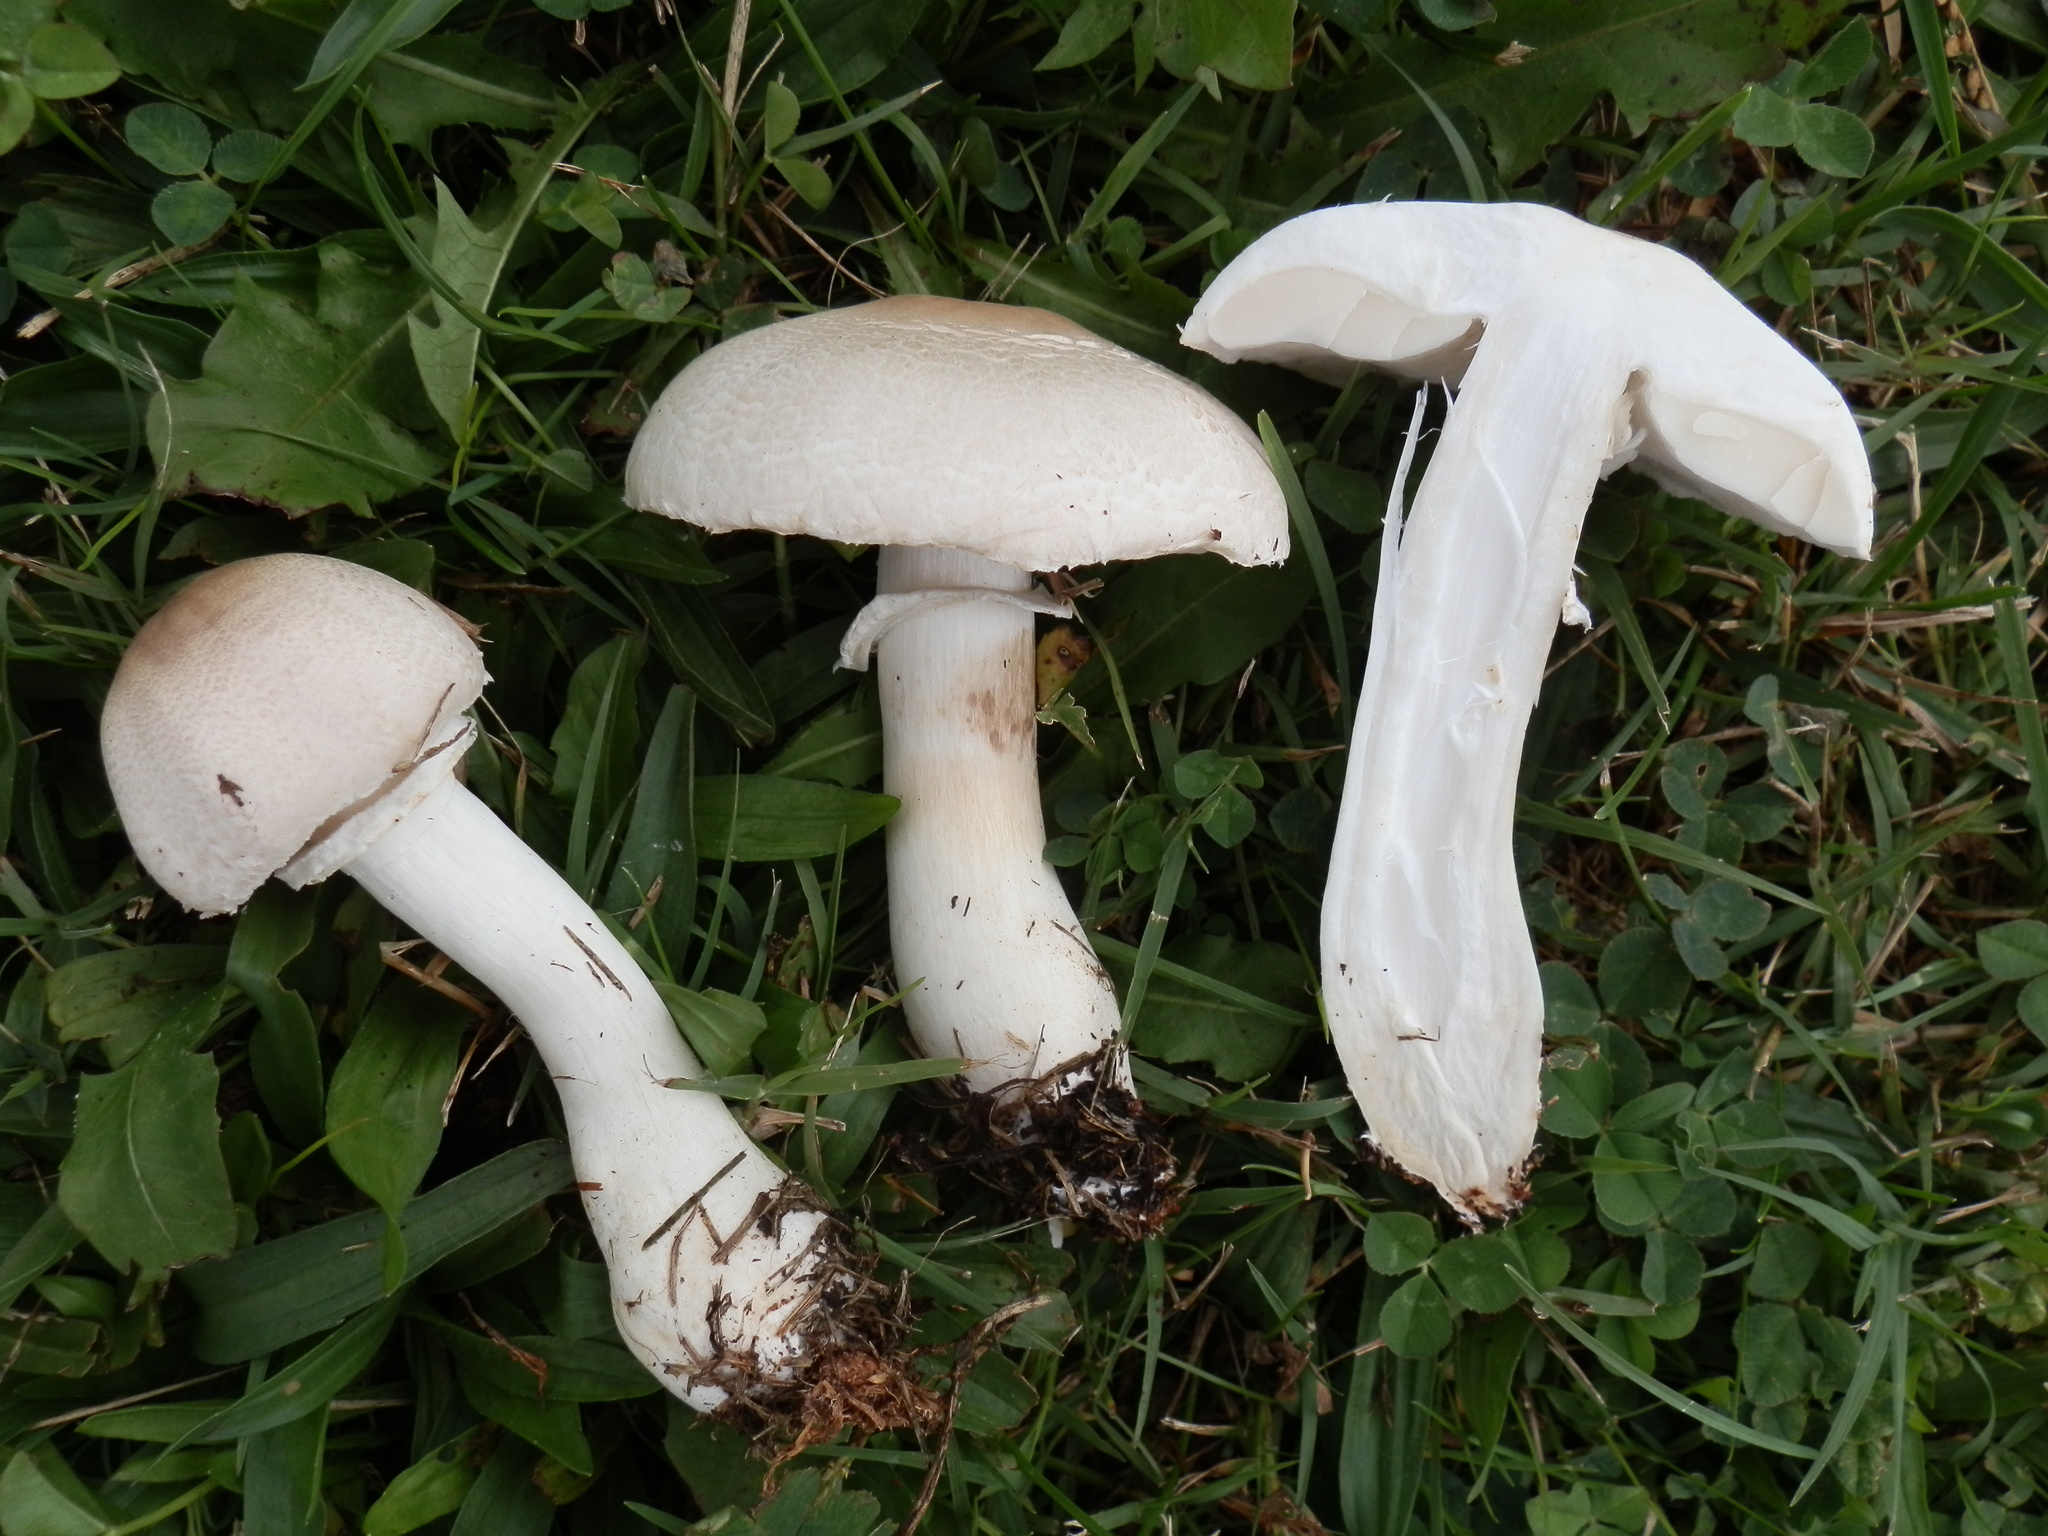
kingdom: Fungi
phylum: Basidiomycota
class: Agaricomycetes
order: Agaricales
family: Agaricaceae
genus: Leucoagaricus
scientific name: Leucoagaricus leucothites
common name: White dapperling
